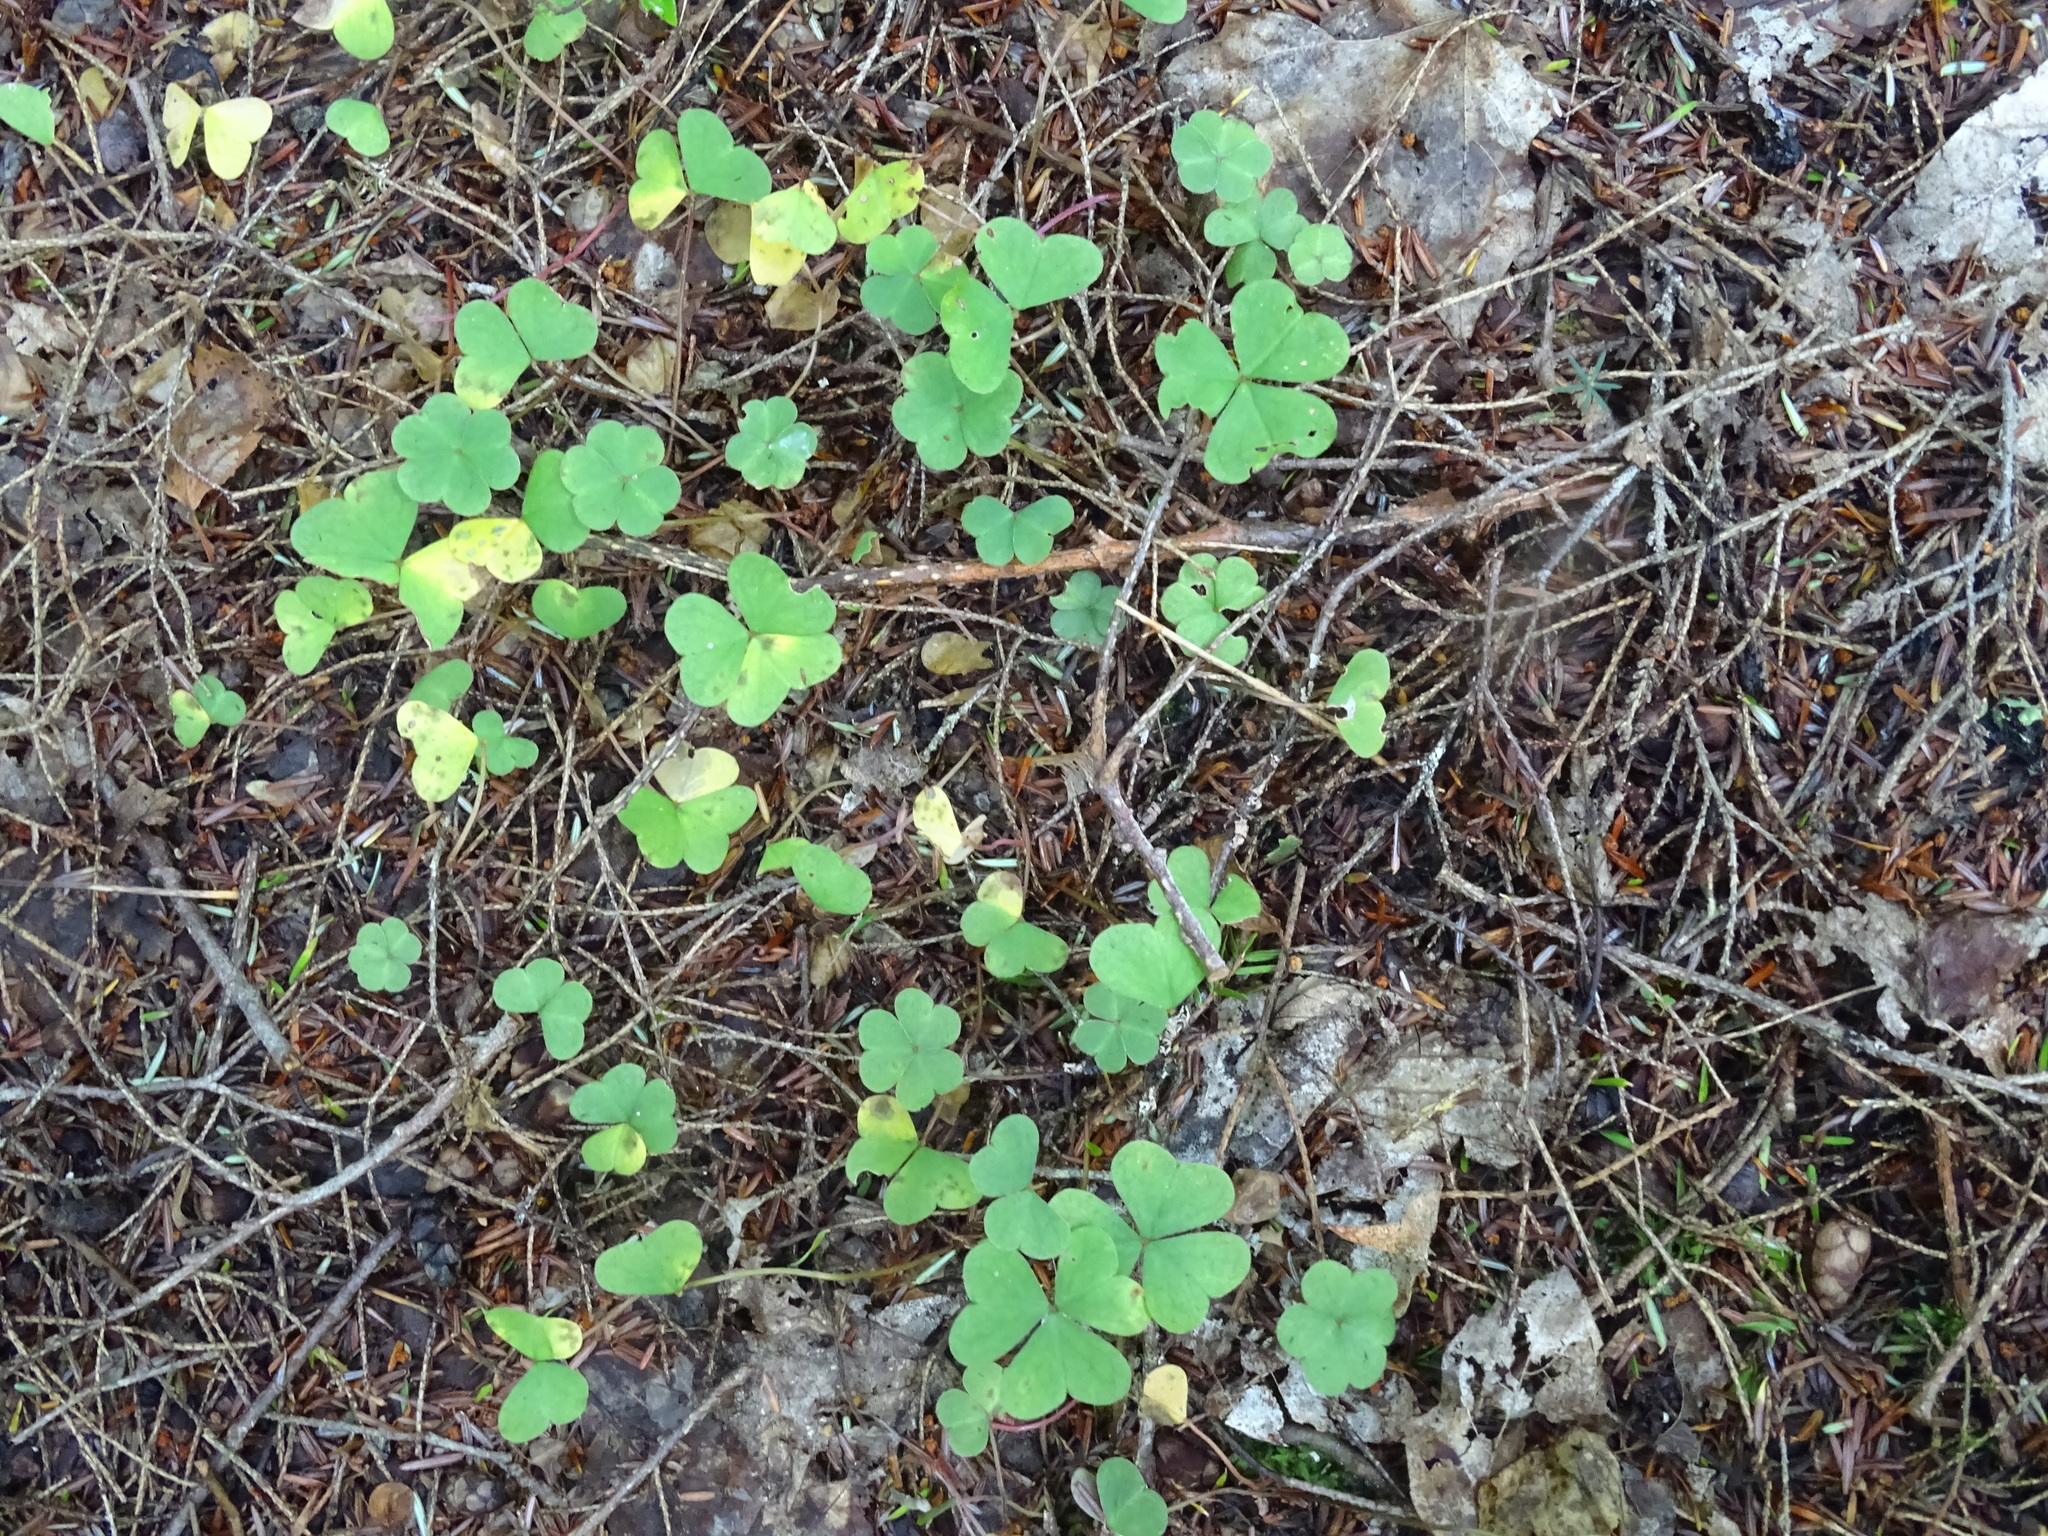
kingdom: Plantae
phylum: Tracheophyta
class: Magnoliopsida
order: Oxalidales
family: Oxalidaceae
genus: Oxalis
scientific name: Oxalis montana
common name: American wood-sorrel
